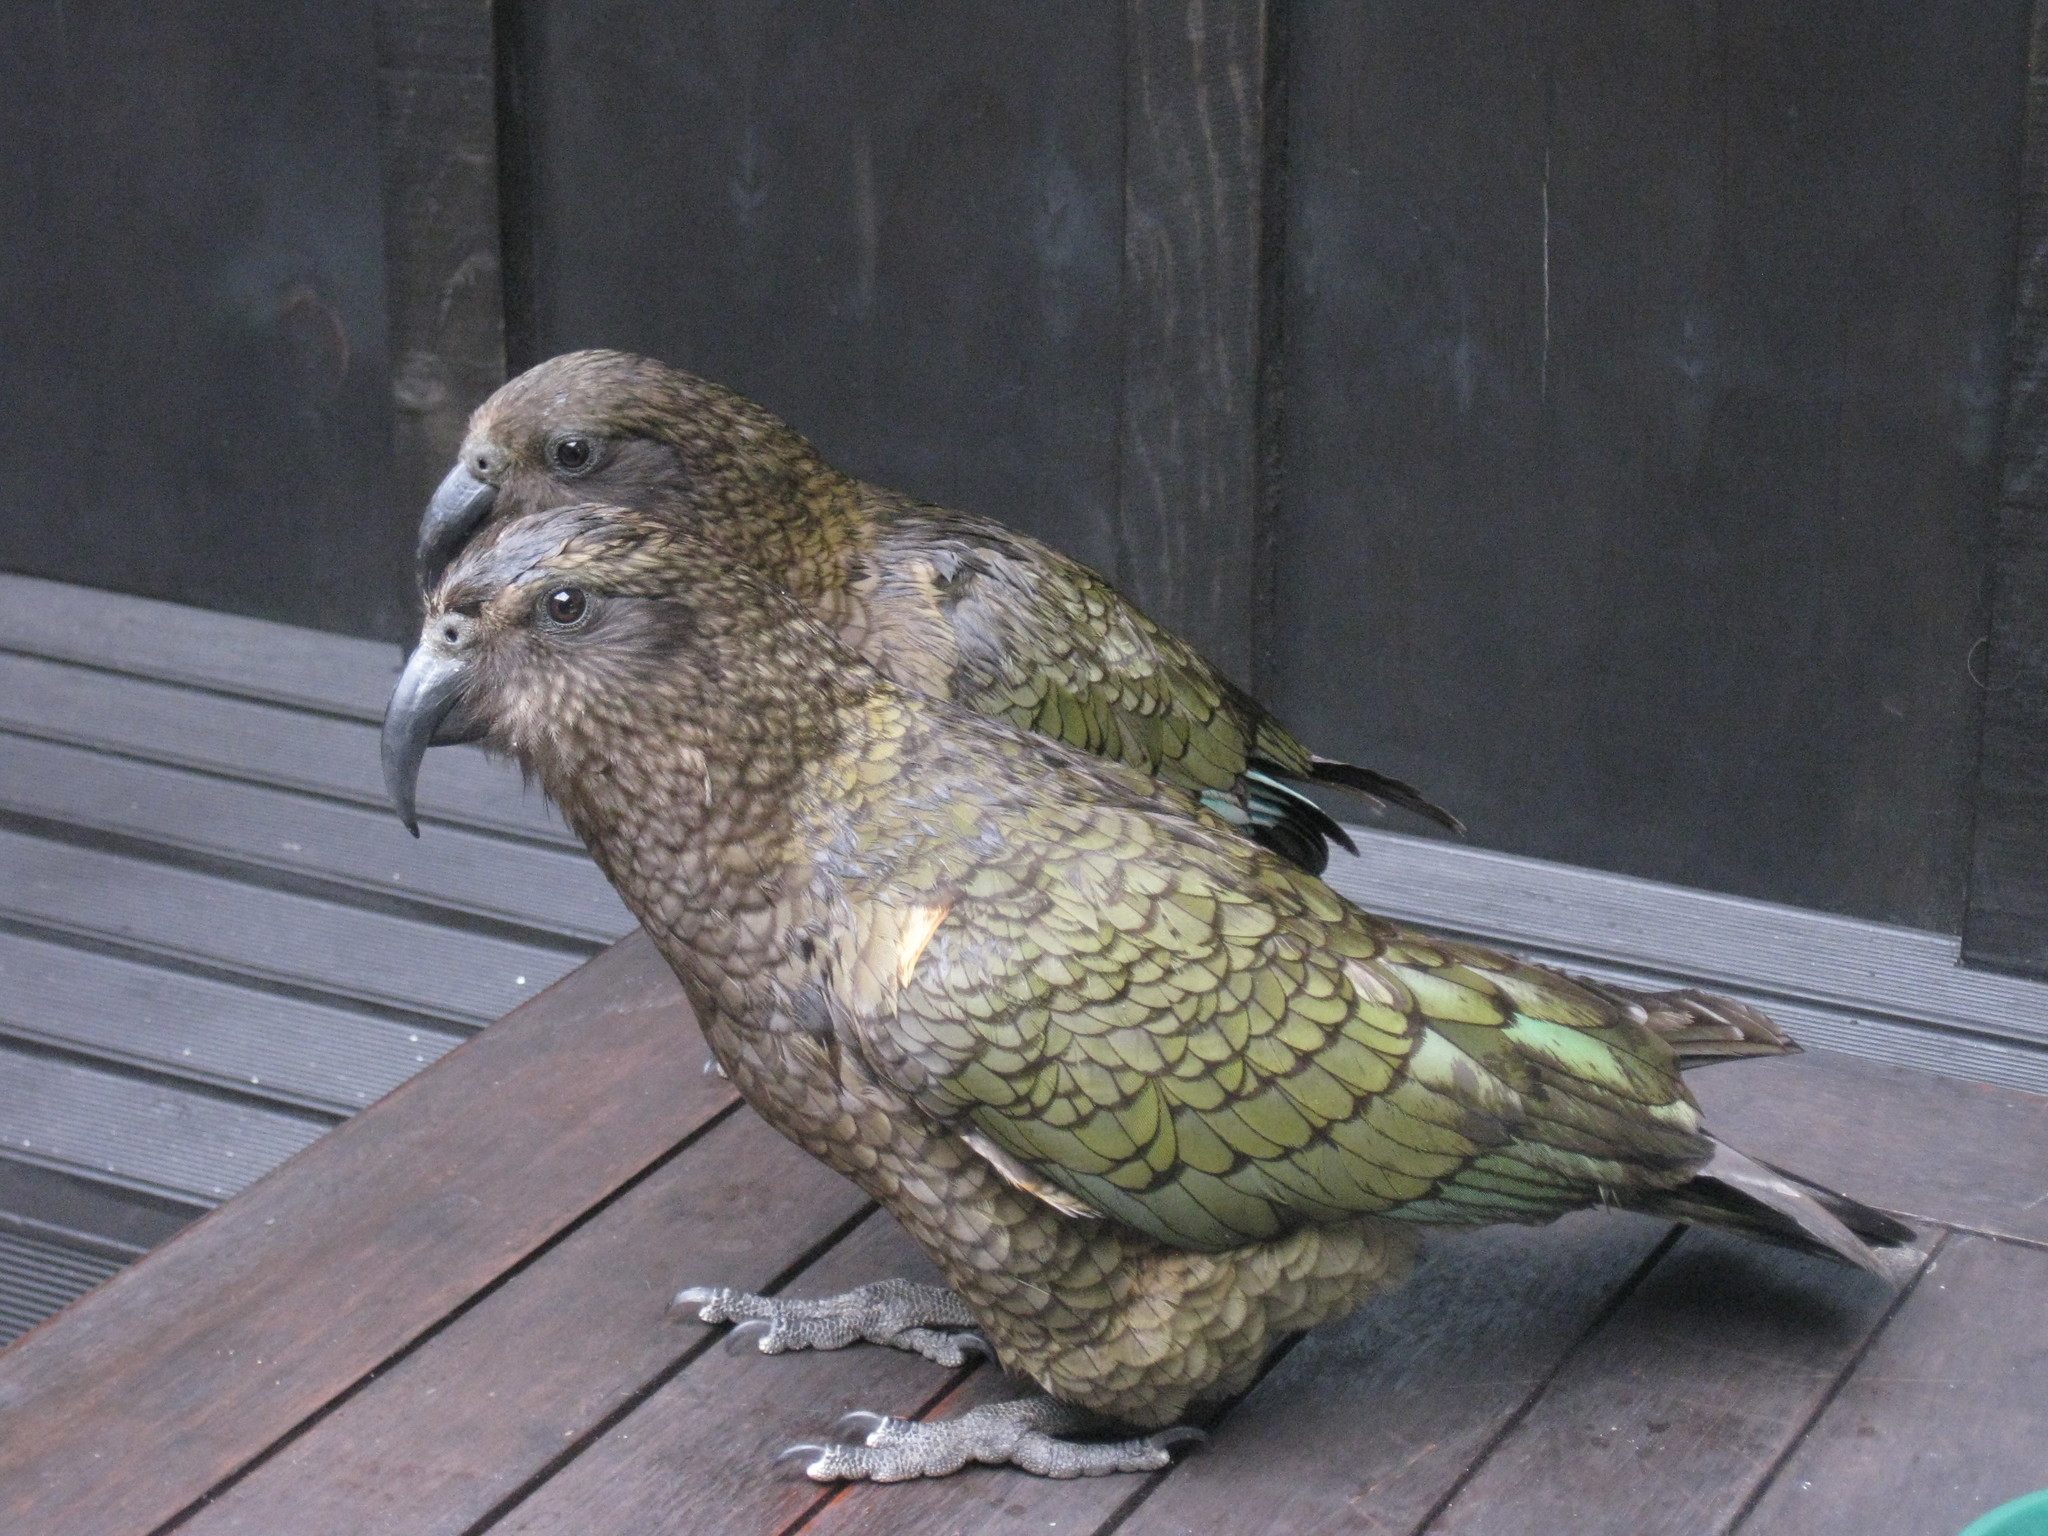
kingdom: Animalia
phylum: Chordata
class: Aves
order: Psittaciformes
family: Psittacidae
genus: Nestor
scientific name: Nestor notabilis
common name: Kea
